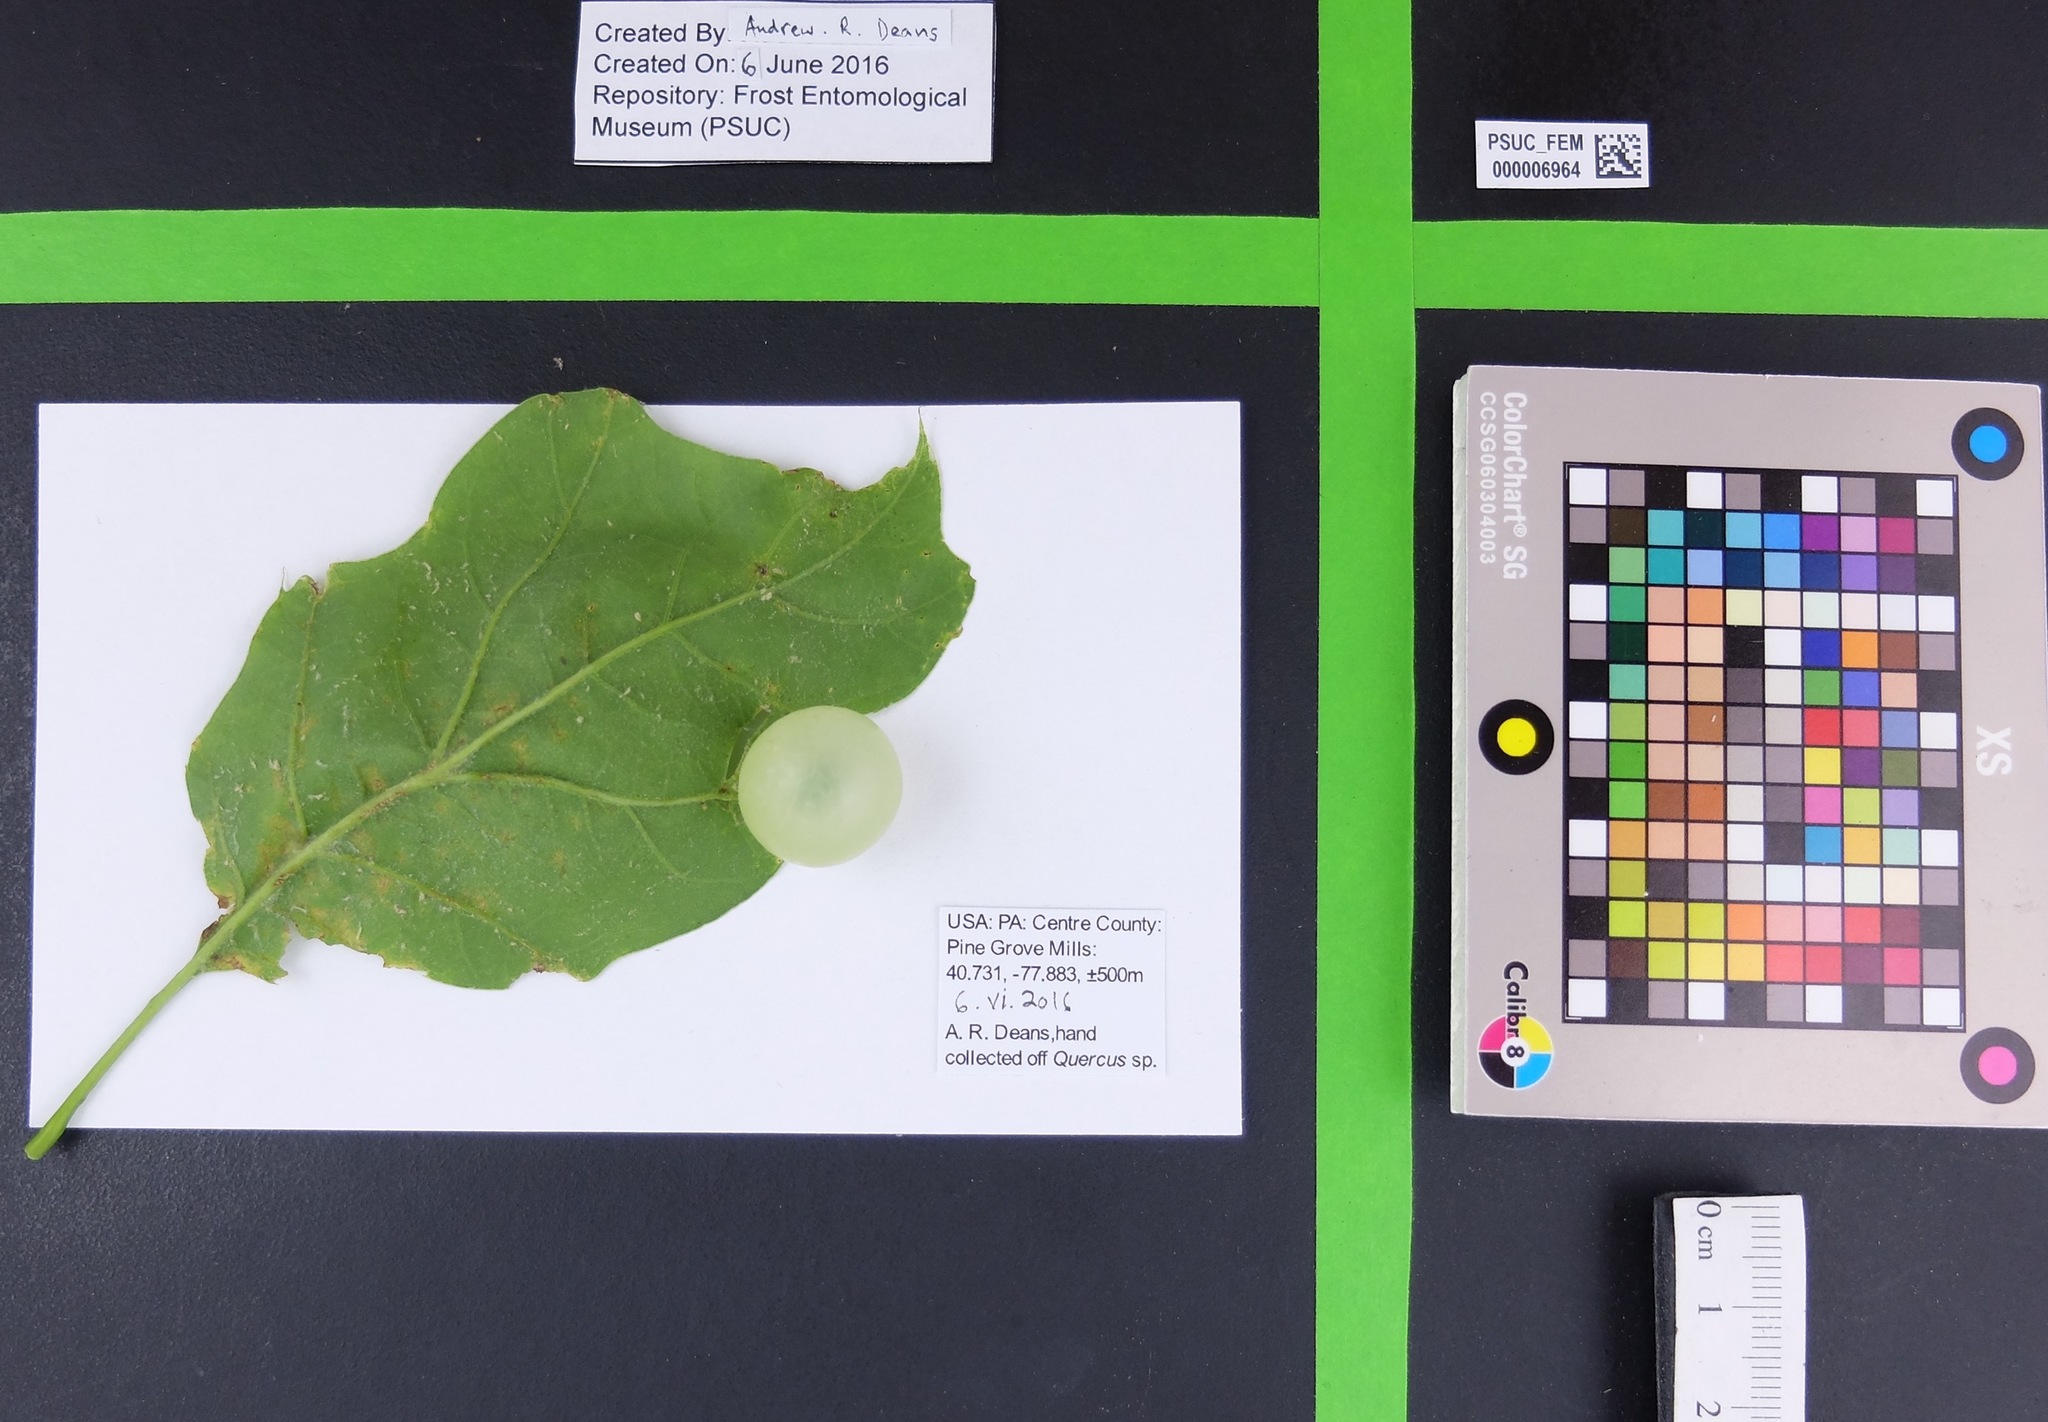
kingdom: Animalia
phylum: Arthropoda
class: Insecta
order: Hymenoptera
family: Cynipidae
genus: Amphibolips
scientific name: Amphibolips
